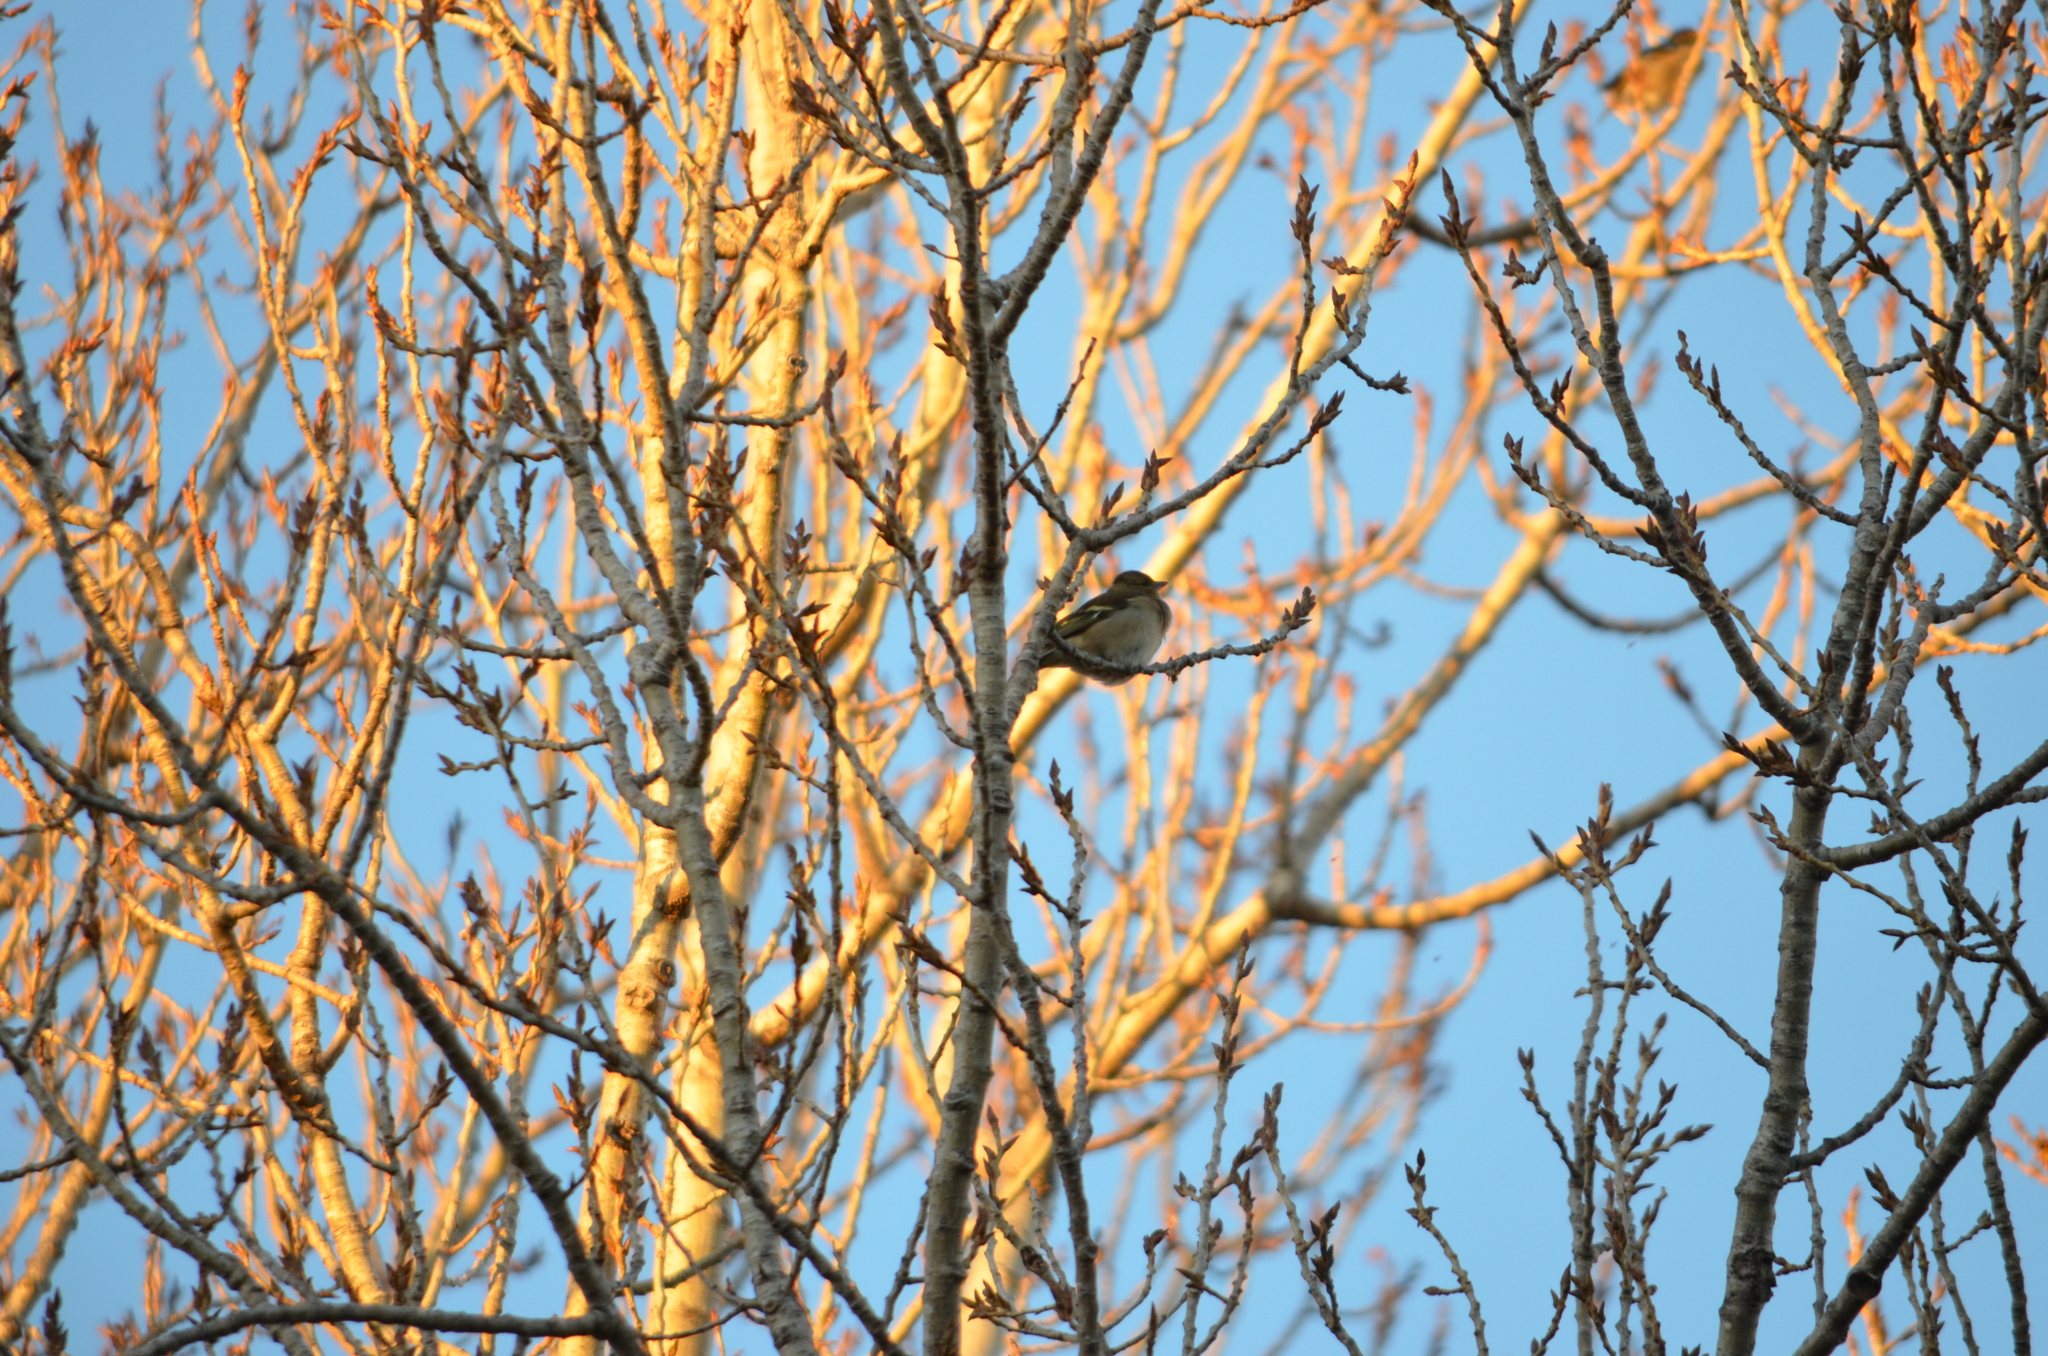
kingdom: Animalia
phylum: Chordata
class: Aves
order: Passeriformes
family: Fringillidae
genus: Fringilla
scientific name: Fringilla coelebs
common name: Common chaffinch
